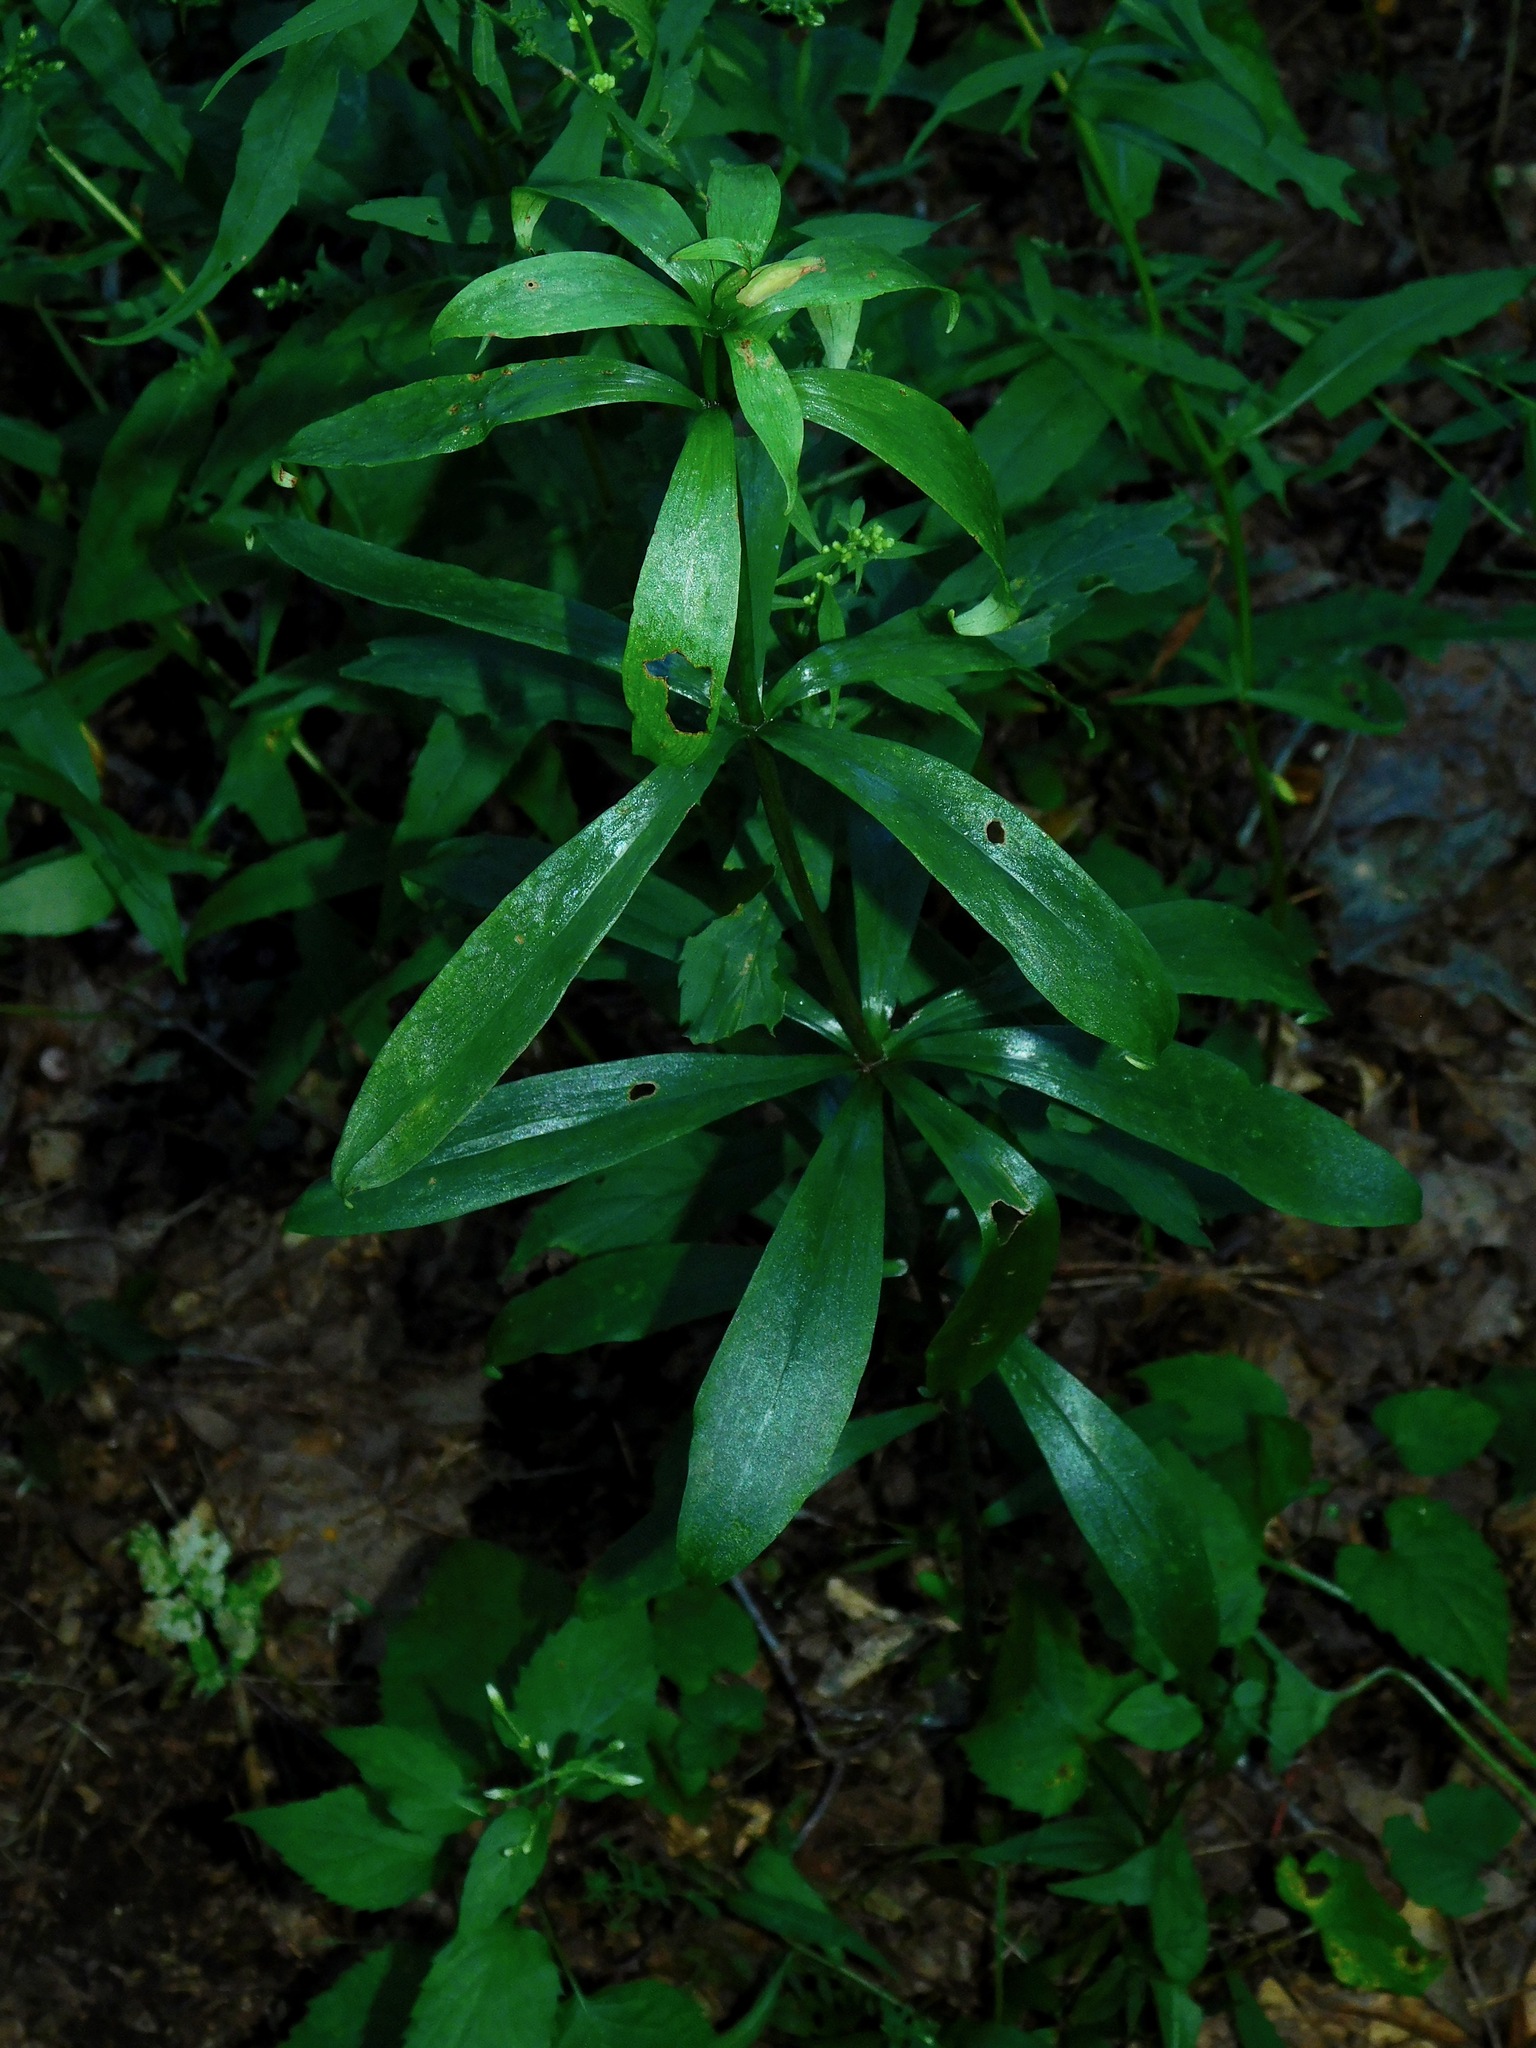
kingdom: Plantae
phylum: Tracheophyta
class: Liliopsida
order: Liliales
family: Liliaceae
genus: Lilium
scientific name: Lilium michauxii
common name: Carolina lily
